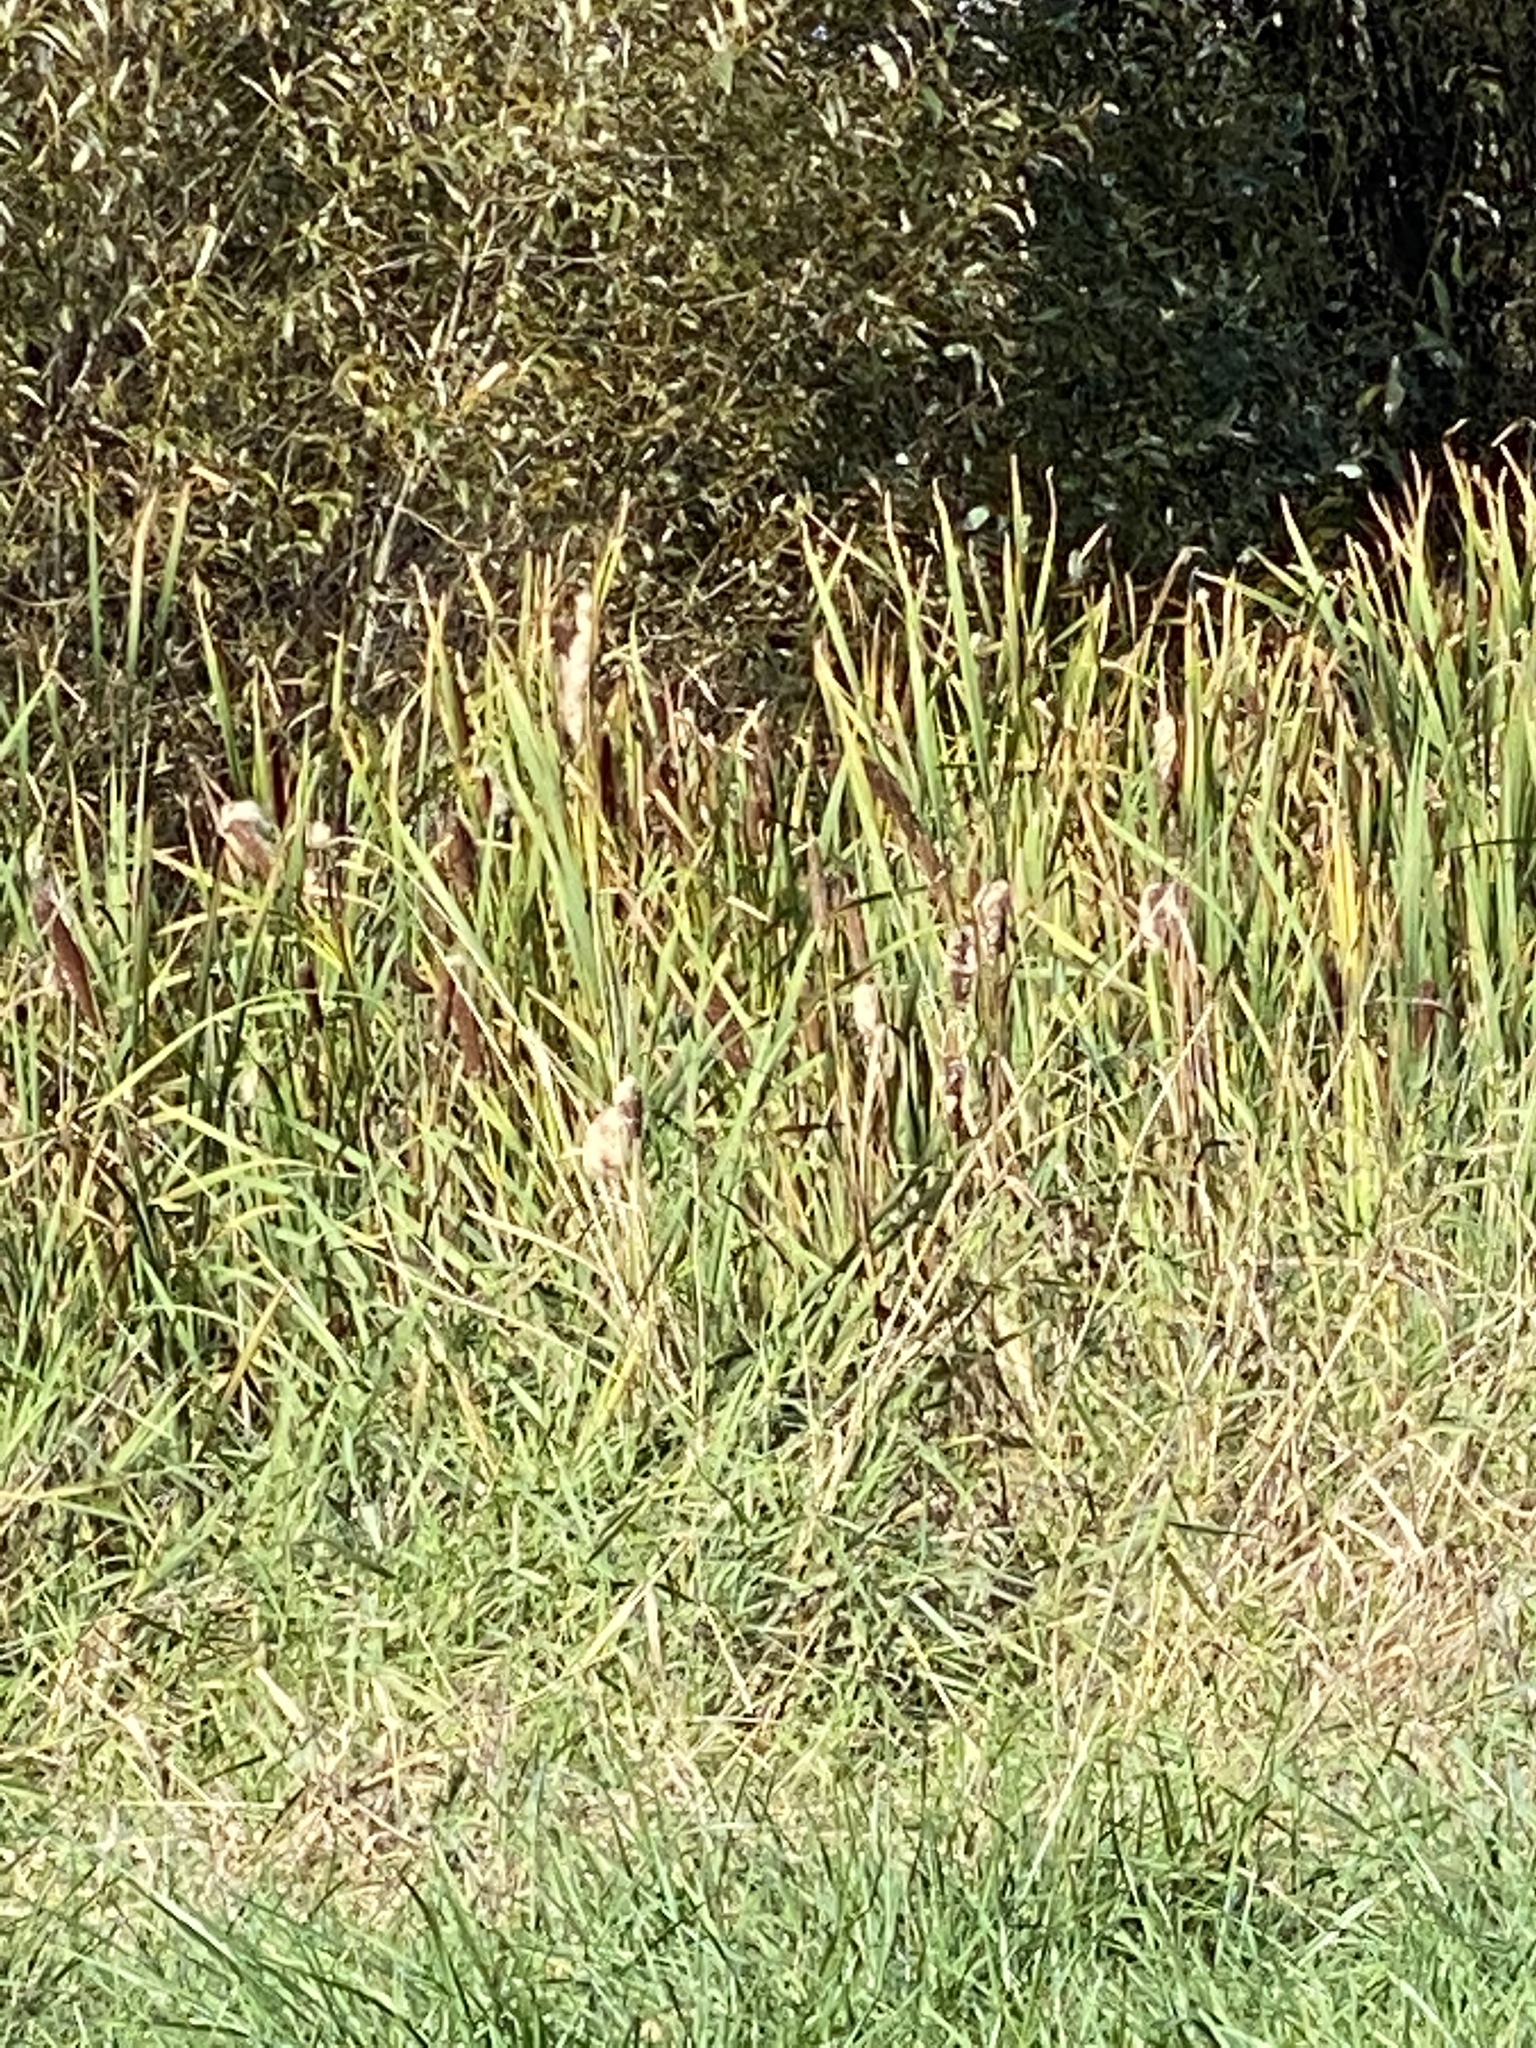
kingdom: Plantae
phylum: Tracheophyta
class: Liliopsida
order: Poales
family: Typhaceae
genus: Typha
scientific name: Typha latifolia
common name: Broadleaf cattail
